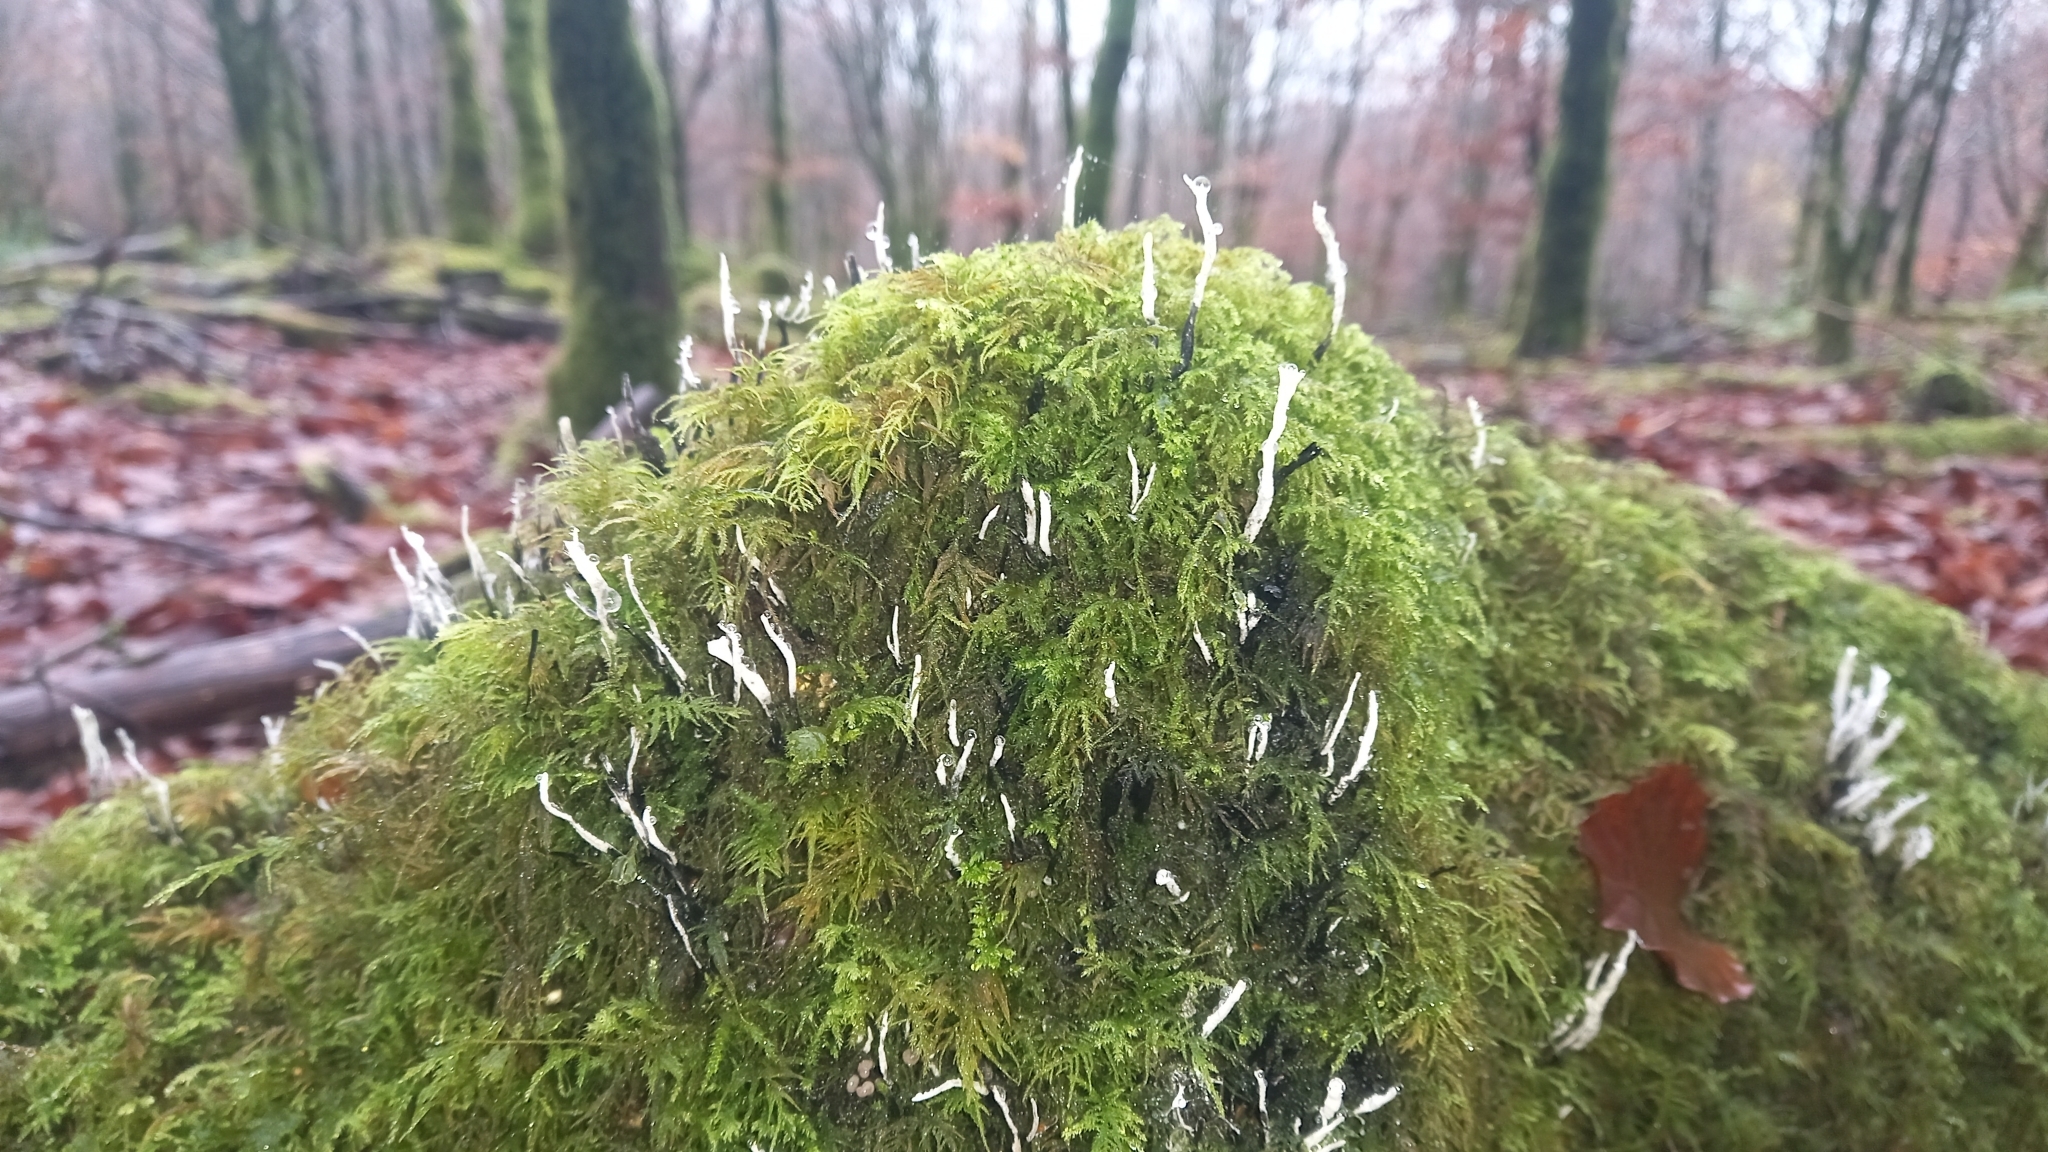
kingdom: Fungi
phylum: Ascomycota
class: Sordariomycetes
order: Xylariales
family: Xylariaceae
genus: Xylaria
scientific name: Xylaria hypoxylon
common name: Candle-snuff fungus
